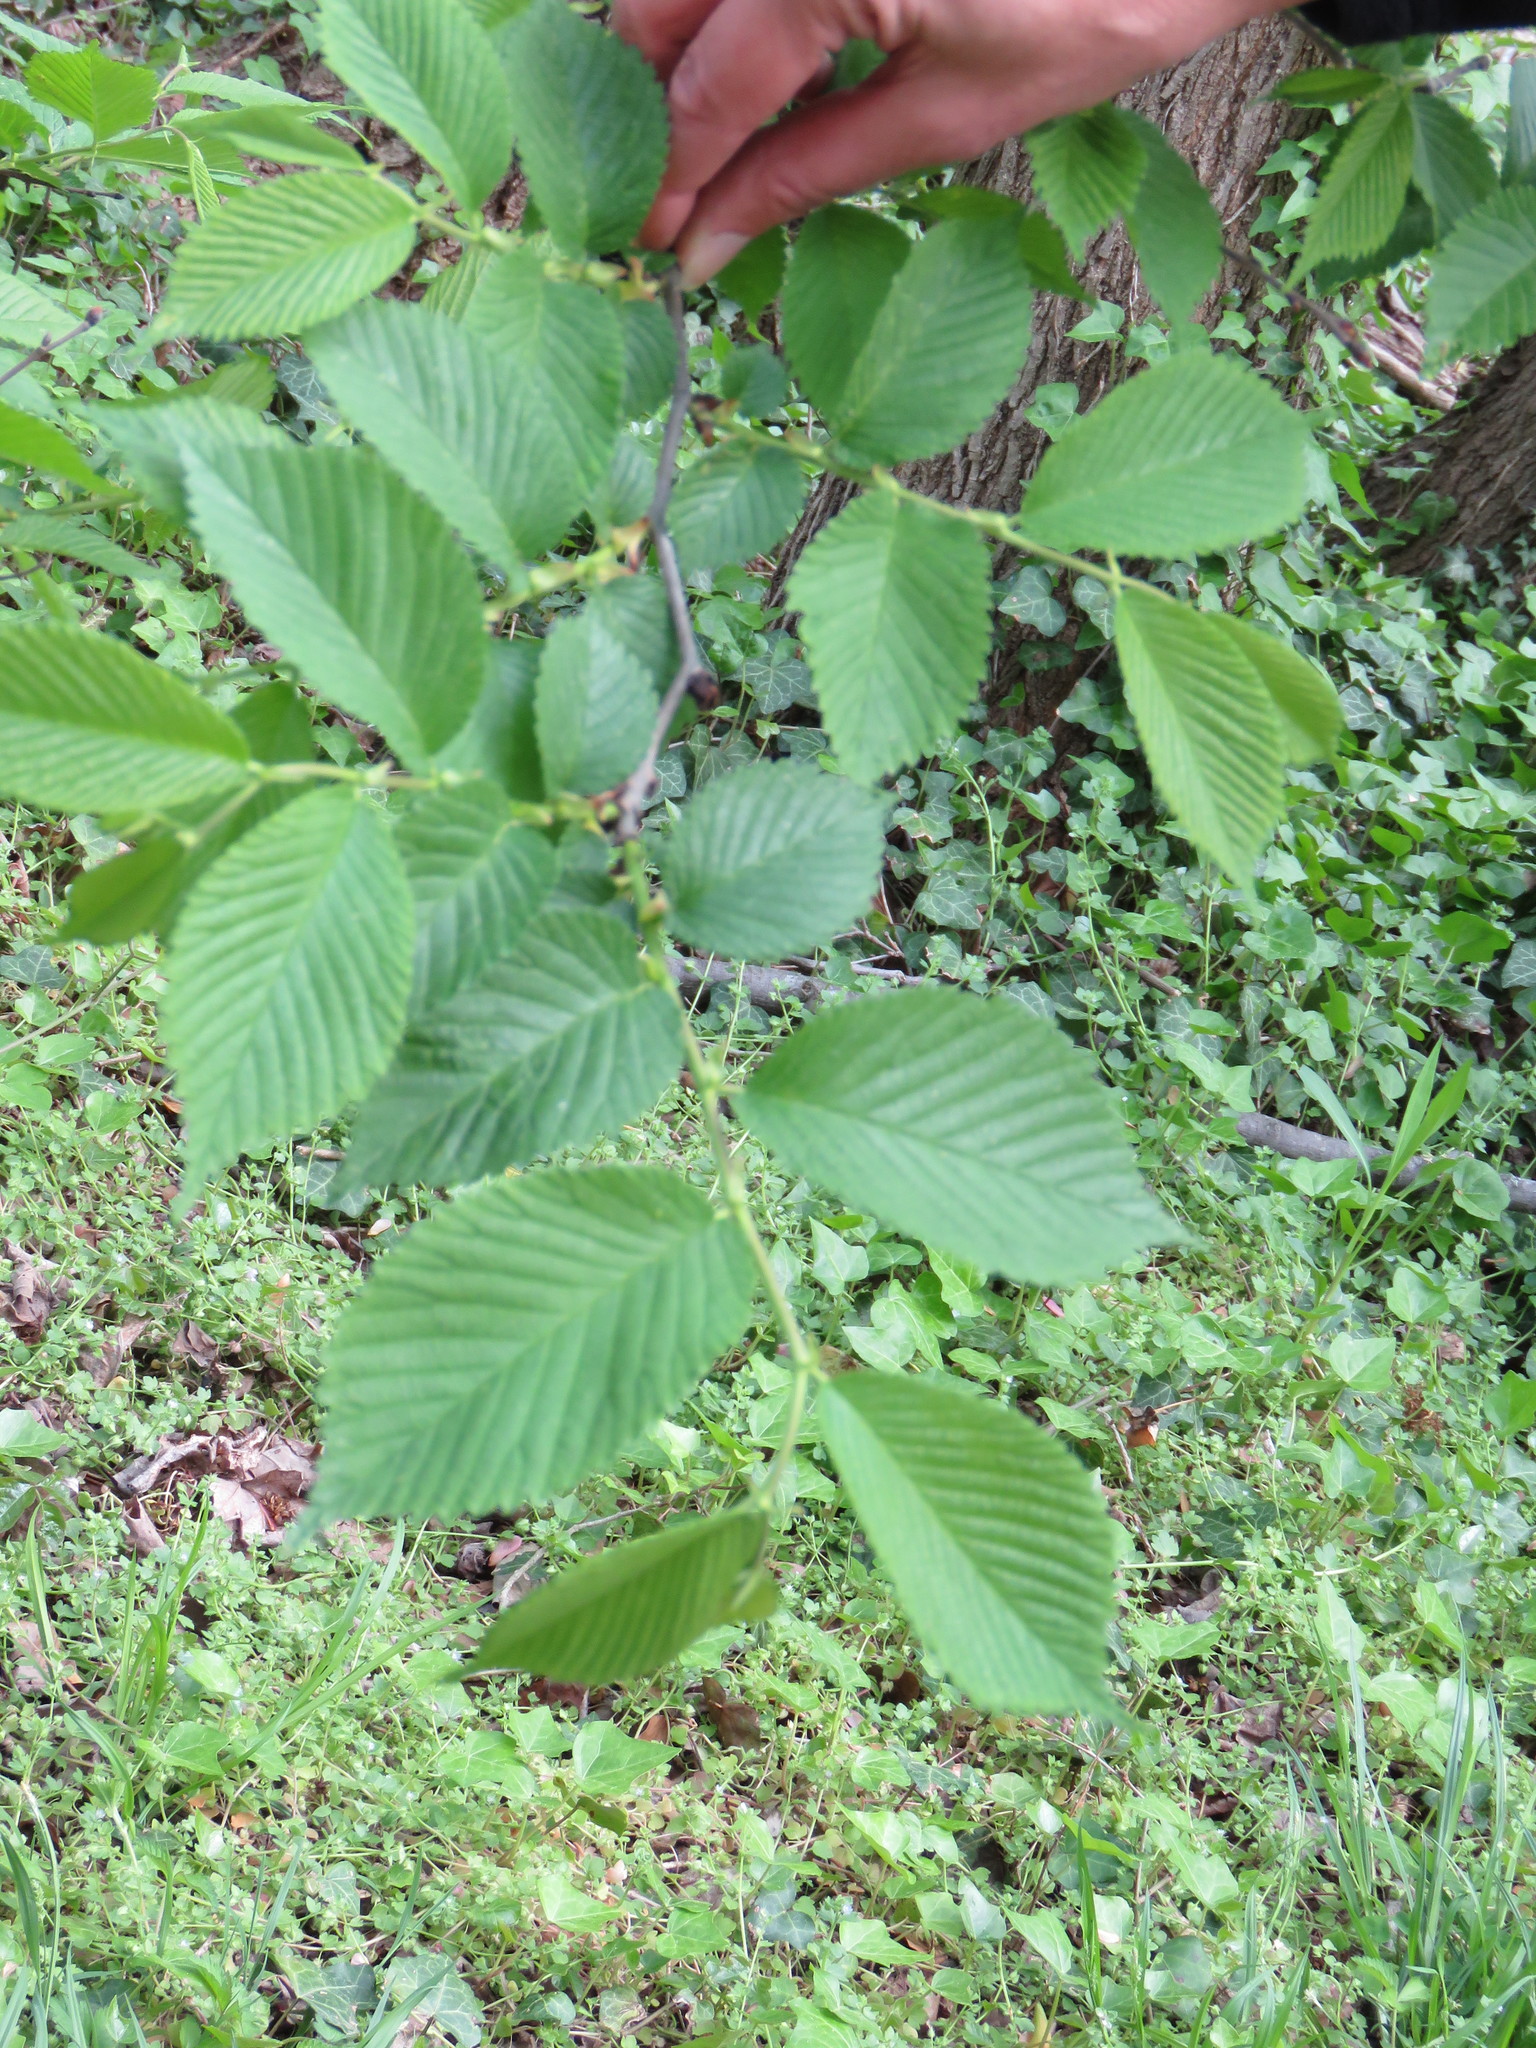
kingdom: Plantae
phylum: Tracheophyta
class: Magnoliopsida
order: Rosales
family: Ulmaceae
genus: Ulmus
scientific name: Ulmus rubra
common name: Slippery elm
